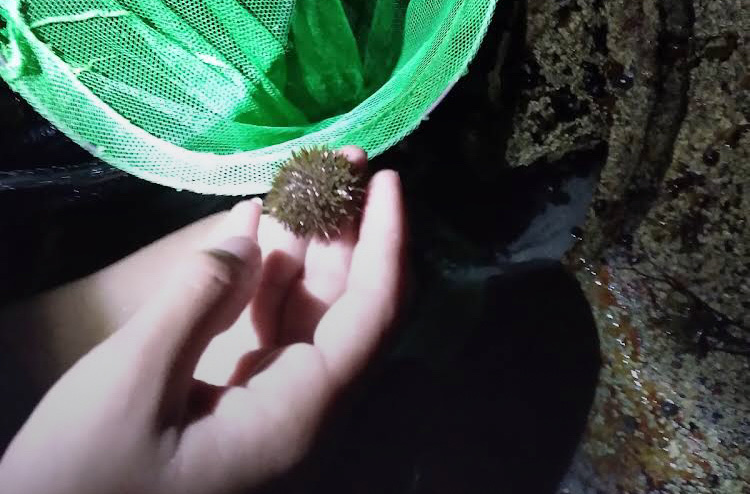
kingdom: Animalia
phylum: Echinodermata
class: Echinoidea
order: Camarodonta
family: Strongylocentrotidae
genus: Strongylocentrotus
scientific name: Strongylocentrotus droebachiensis
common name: Northern sea urchin
